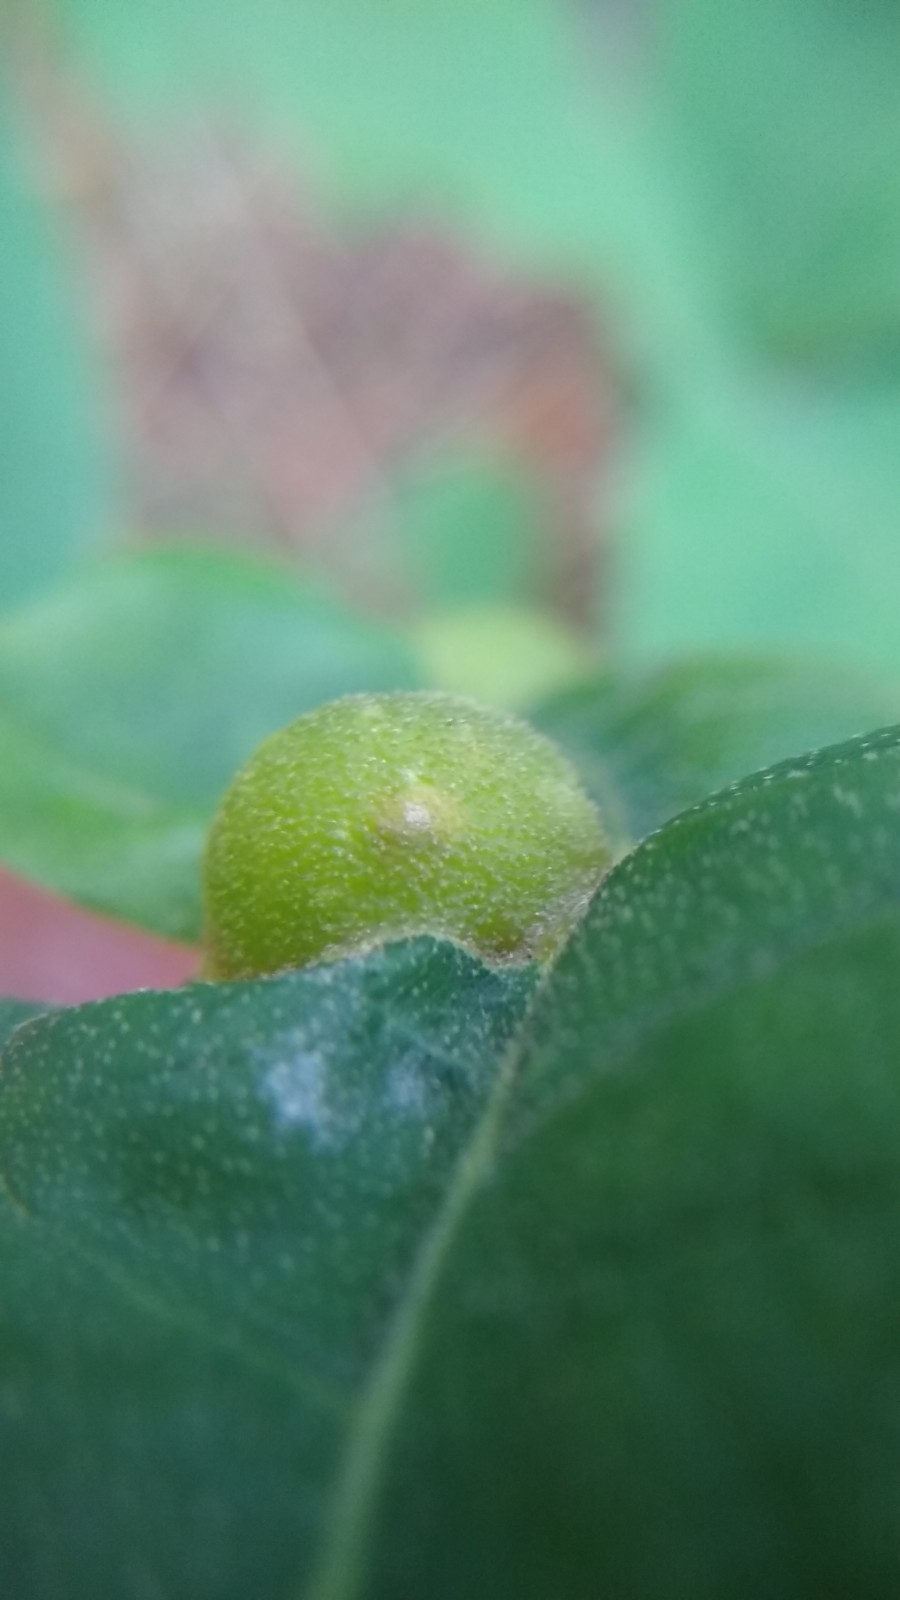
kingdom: Animalia
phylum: Arthropoda
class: Insecta
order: Hymenoptera
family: Cynipidae
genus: Dryocosmus
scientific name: Dryocosmus quercuspalustris
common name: Succulent oak gall wasp
